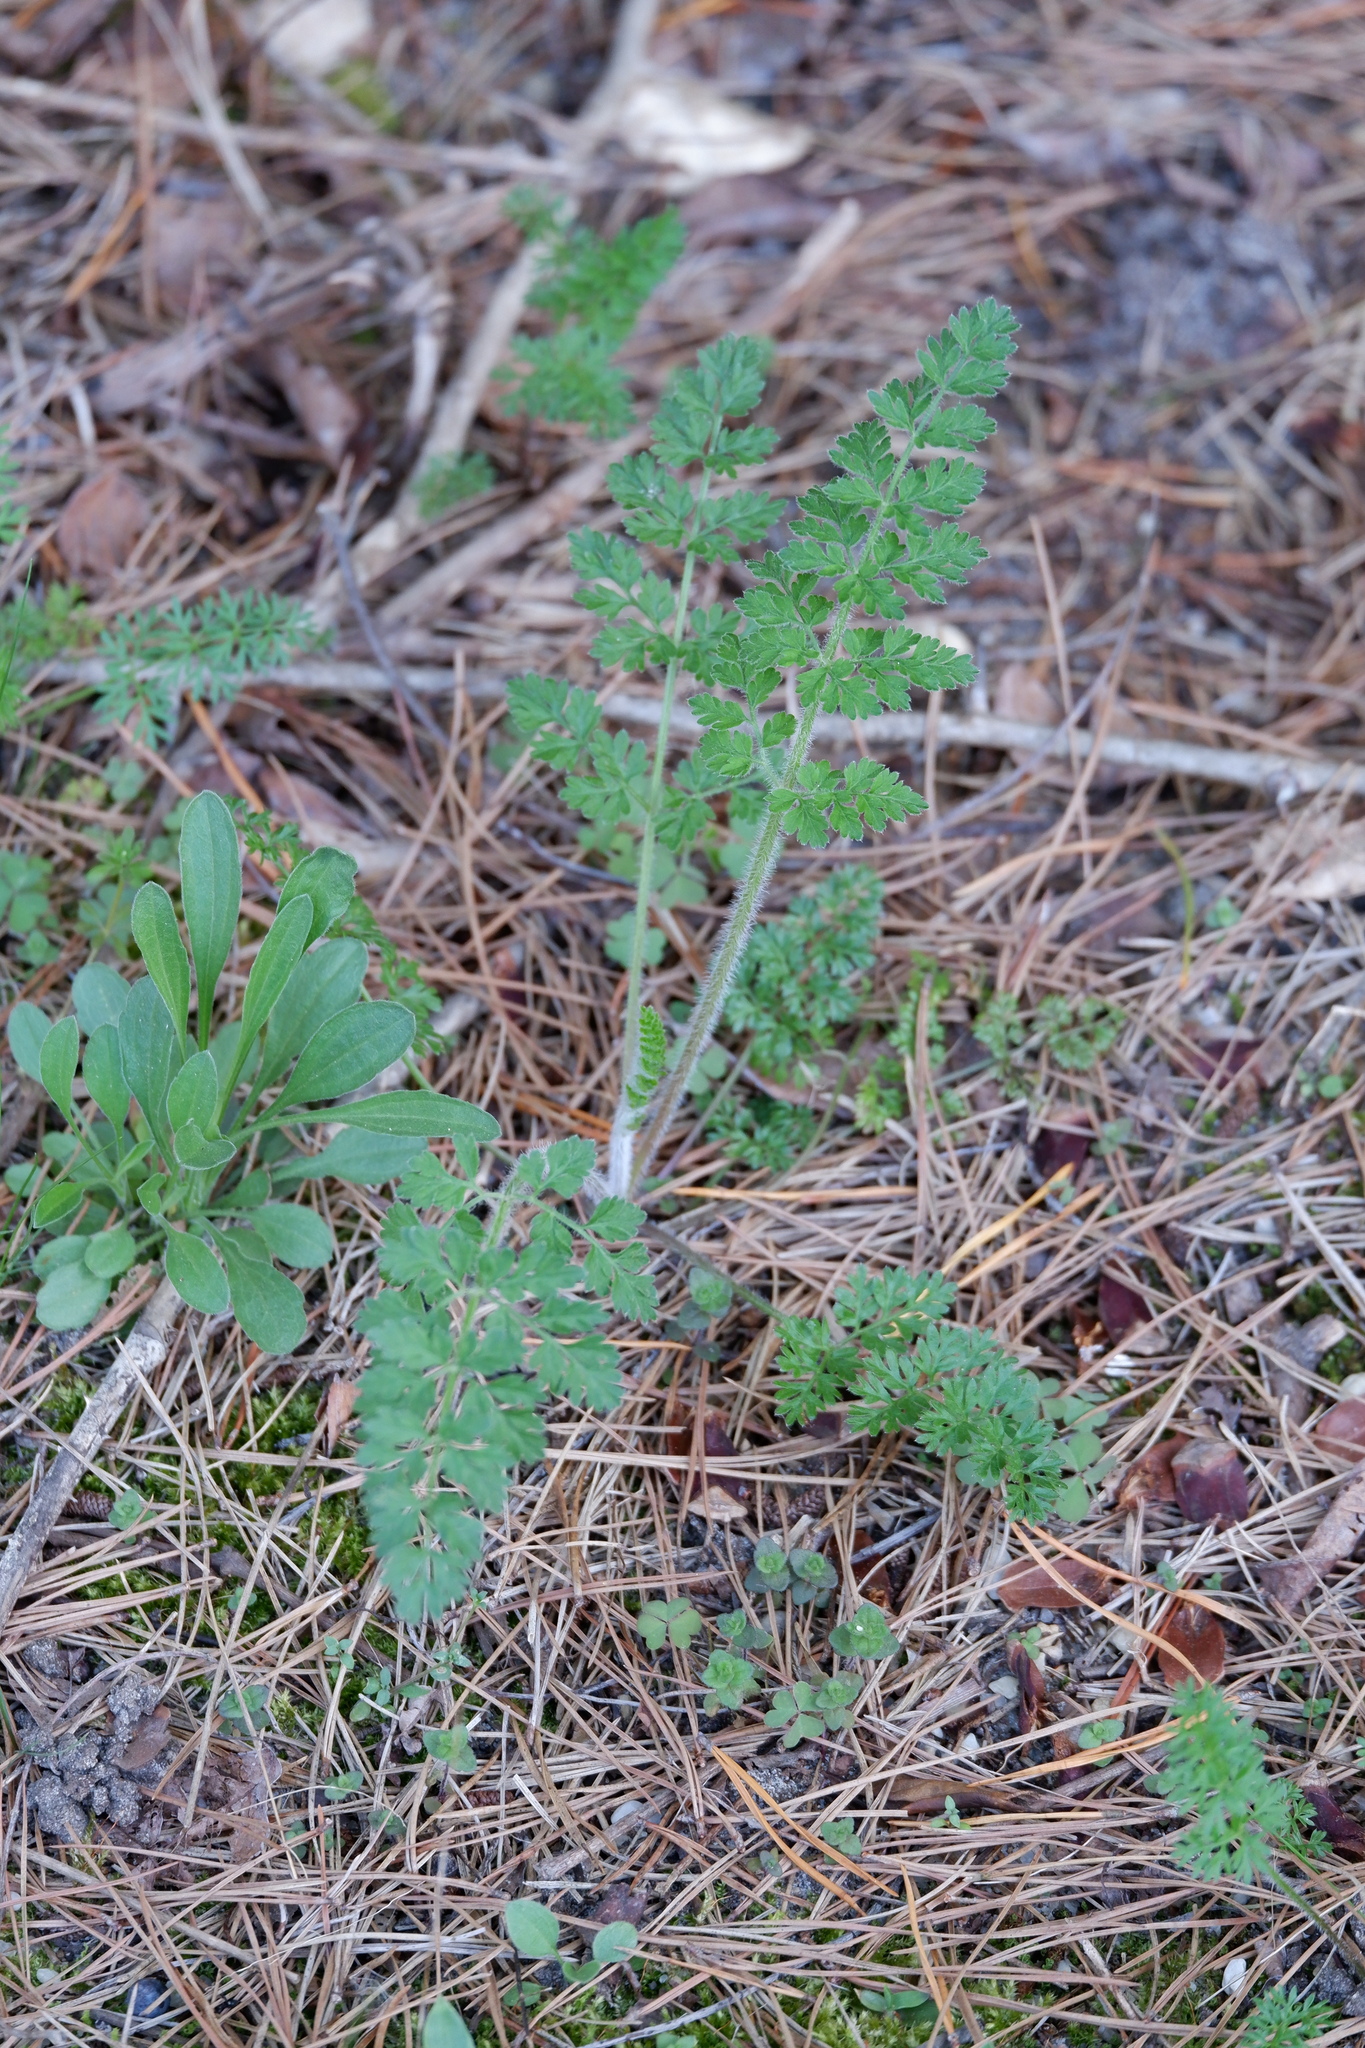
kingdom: Plantae
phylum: Tracheophyta
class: Magnoliopsida
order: Apiales
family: Apiaceae
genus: Daucus
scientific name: Daucus carota
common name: Wild carrot
